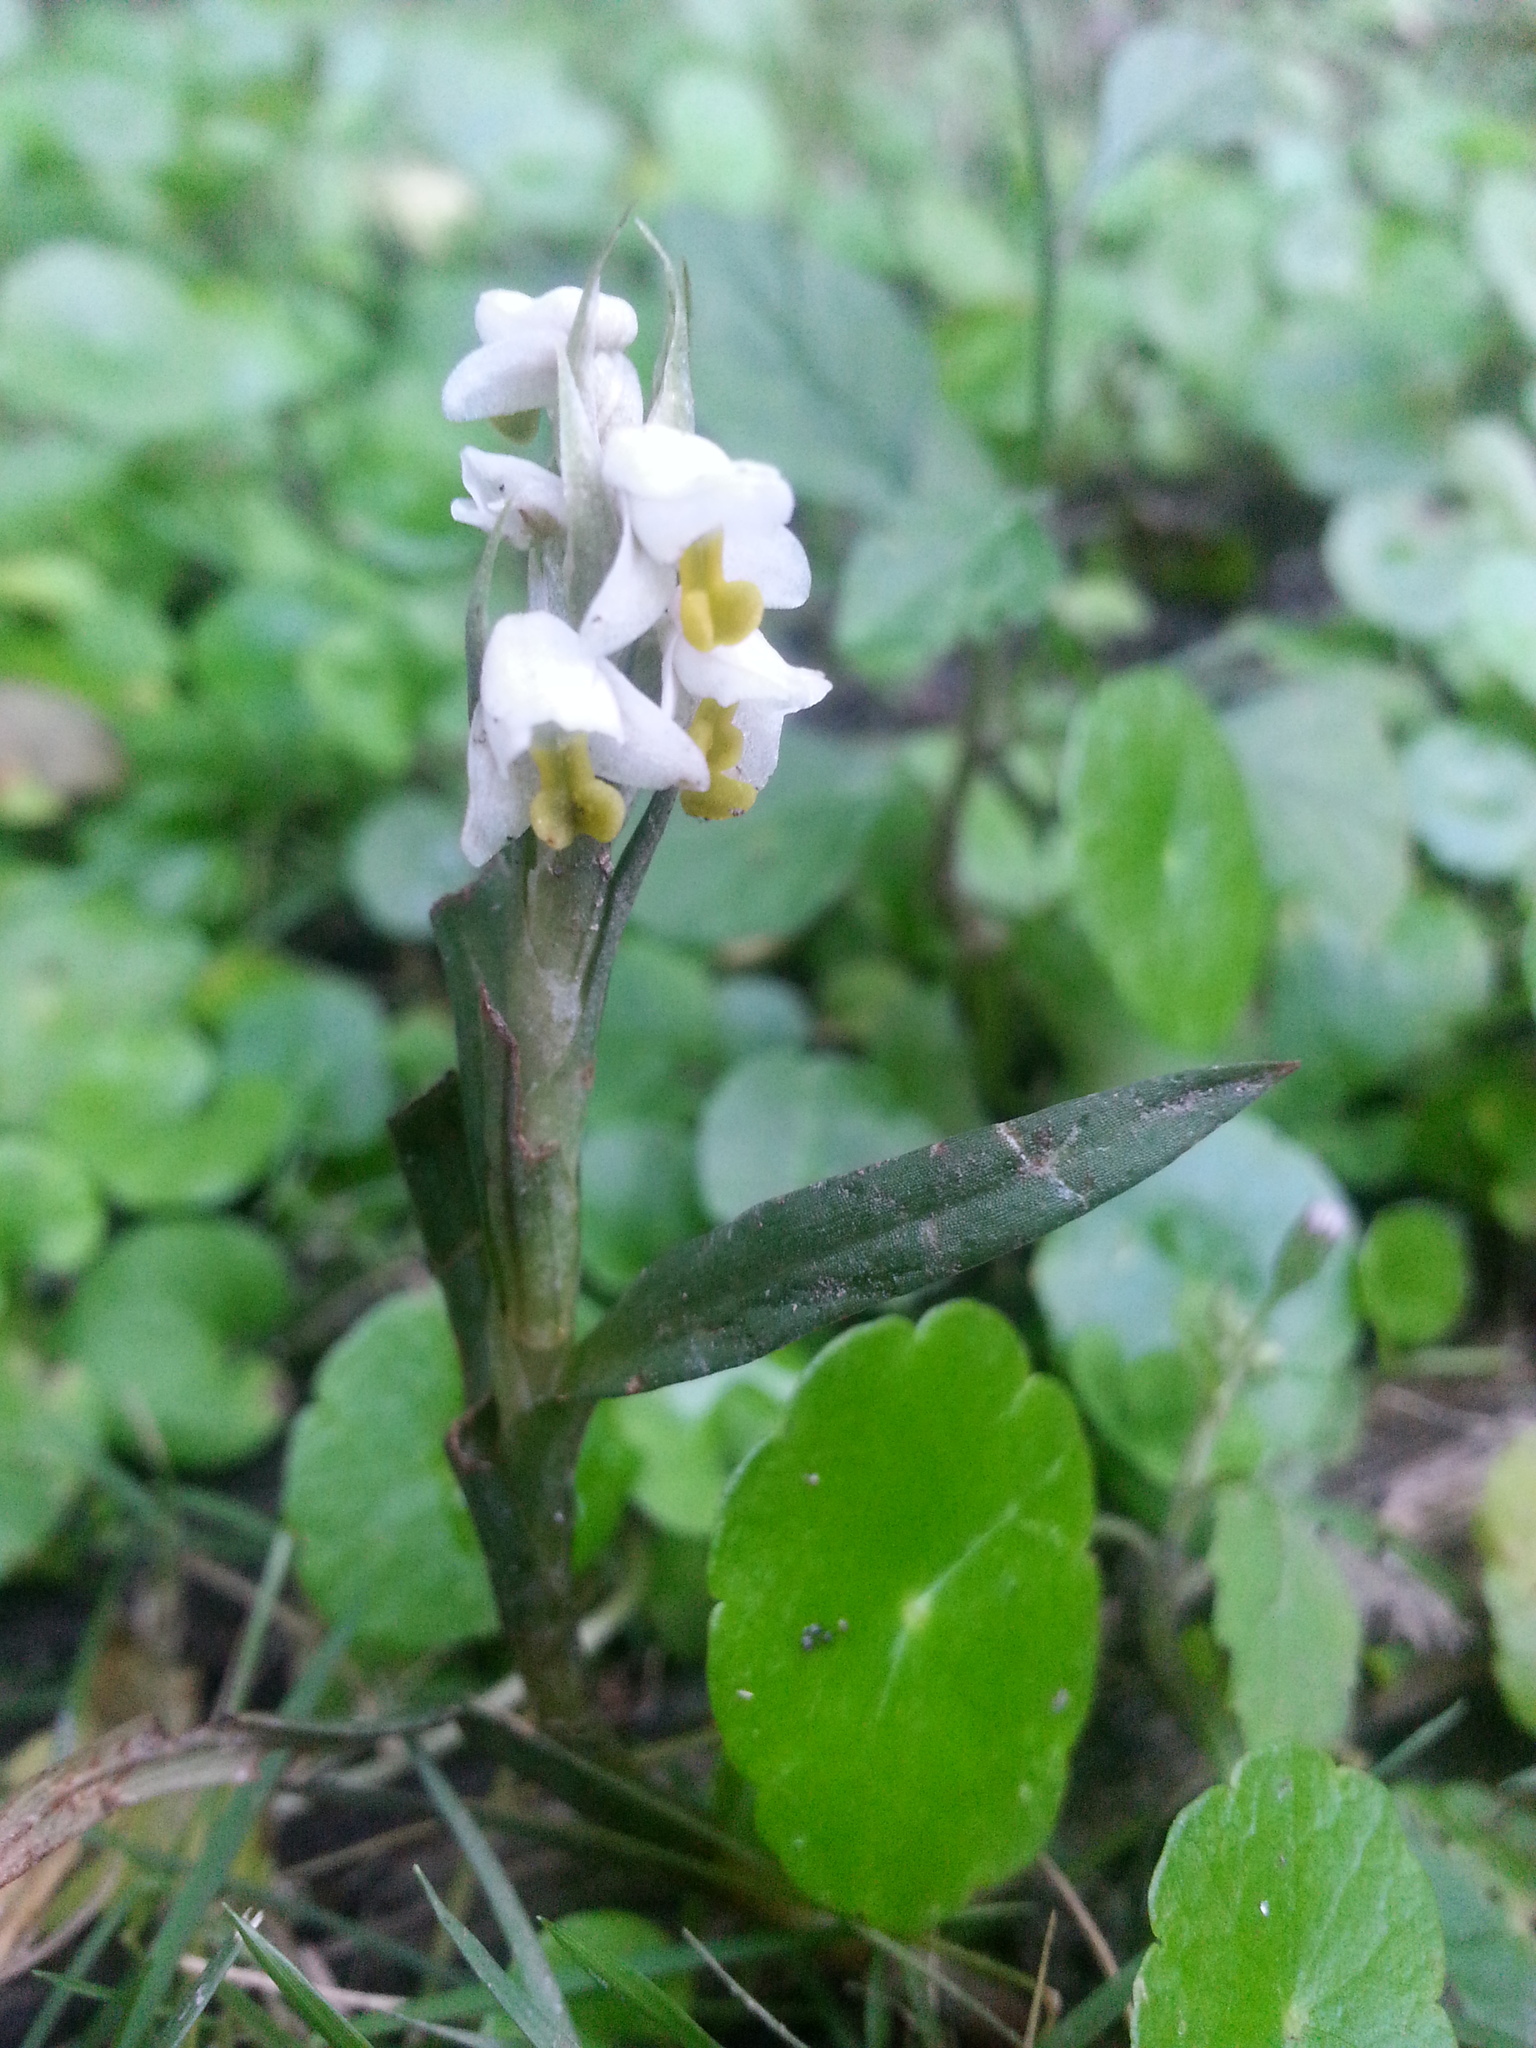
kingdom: Plantae
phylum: Tracheophyta
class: Liliopsida
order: Asparagales
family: Orchidaceae
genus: Zeuxine
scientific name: Zeuxine strateumatica
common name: Soldier's orchid
